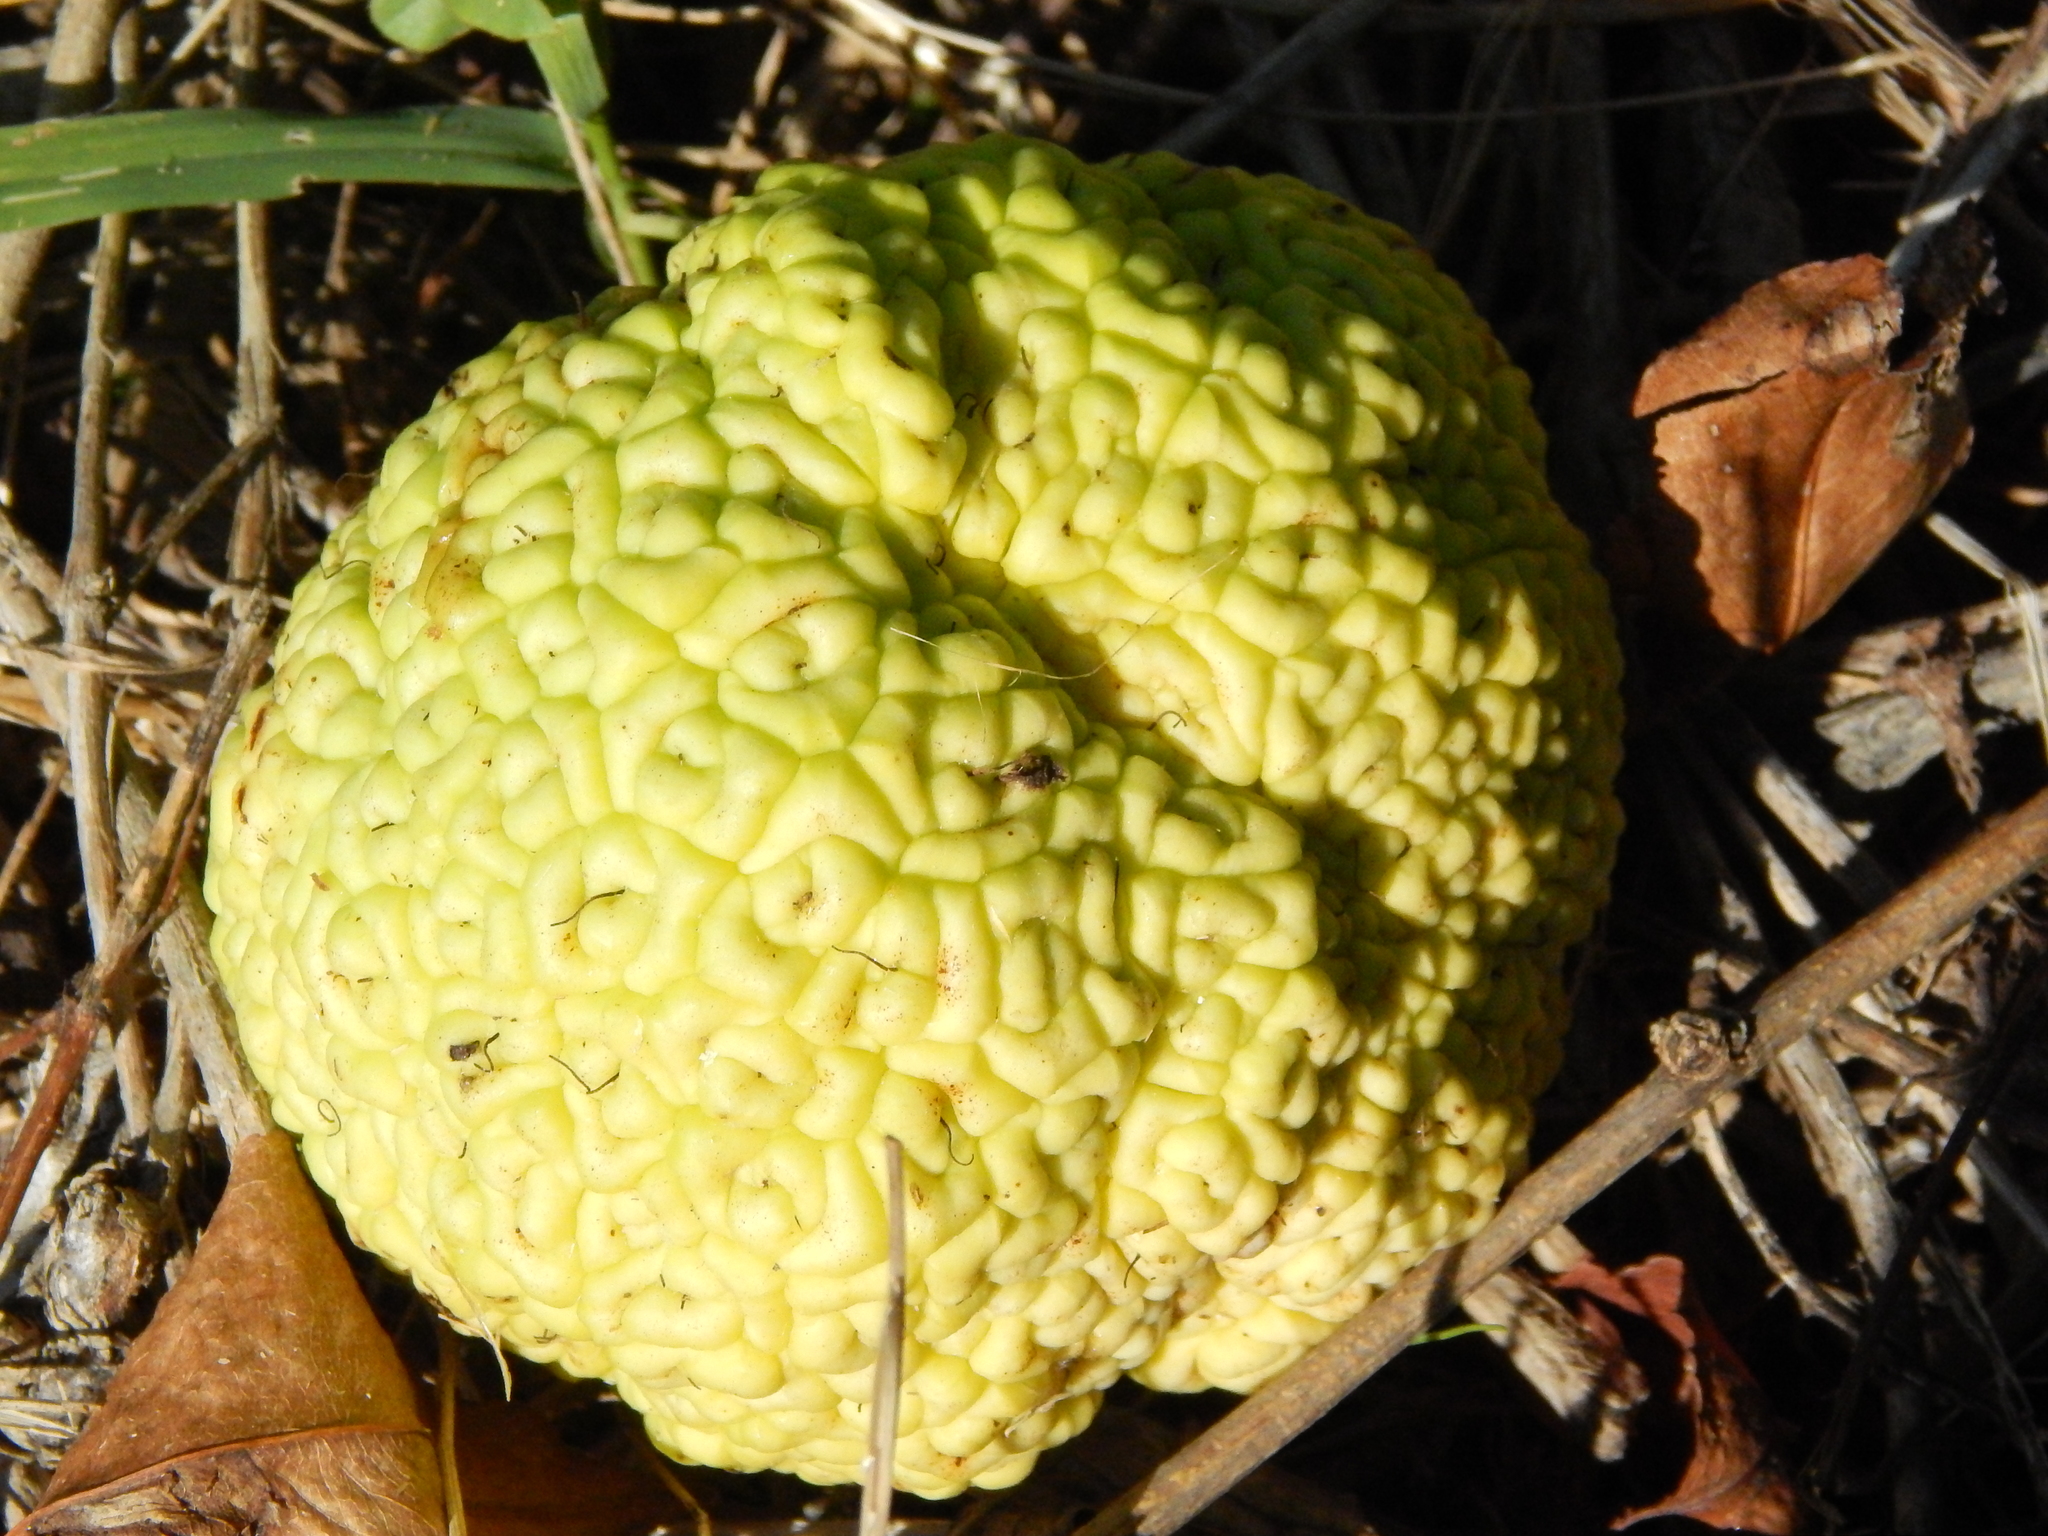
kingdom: Plantae
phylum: Tracheophyta
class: Magnoliopsida
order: Rosales
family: Moraceae
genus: Maclura
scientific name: Maclura pomifera
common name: Osage-orange
